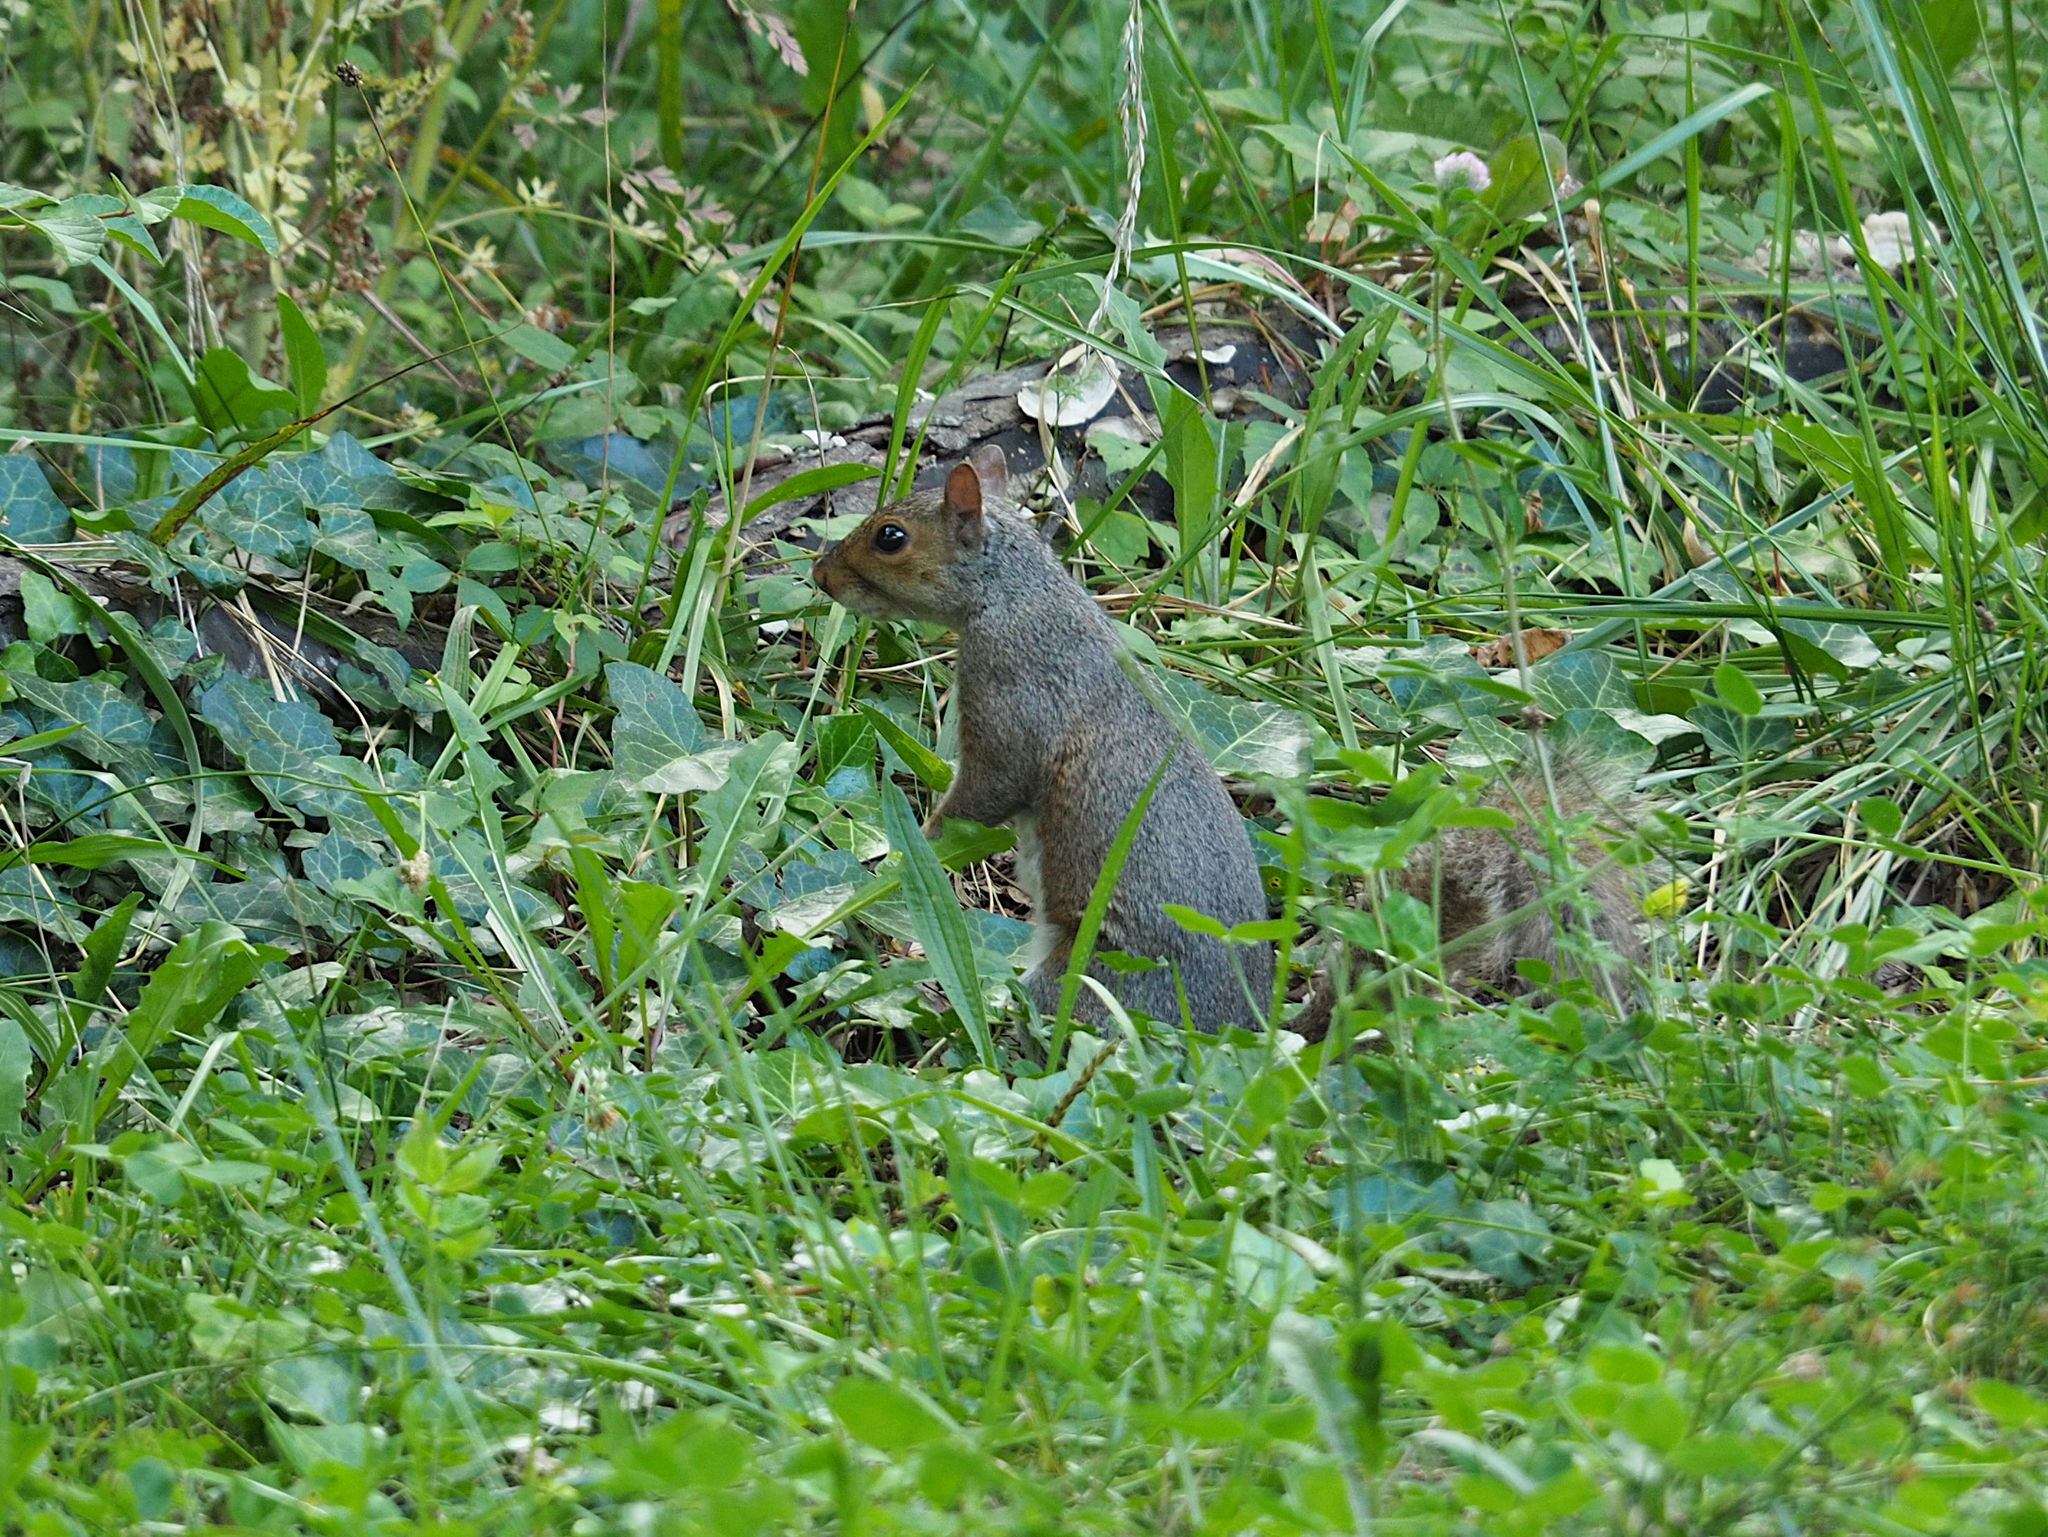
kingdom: Animalia
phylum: Chordata
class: Mammalia
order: Rodentia
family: Sciuridae
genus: Sciurus
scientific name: Sciurus carolinensis
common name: Eastern gray squirrel
